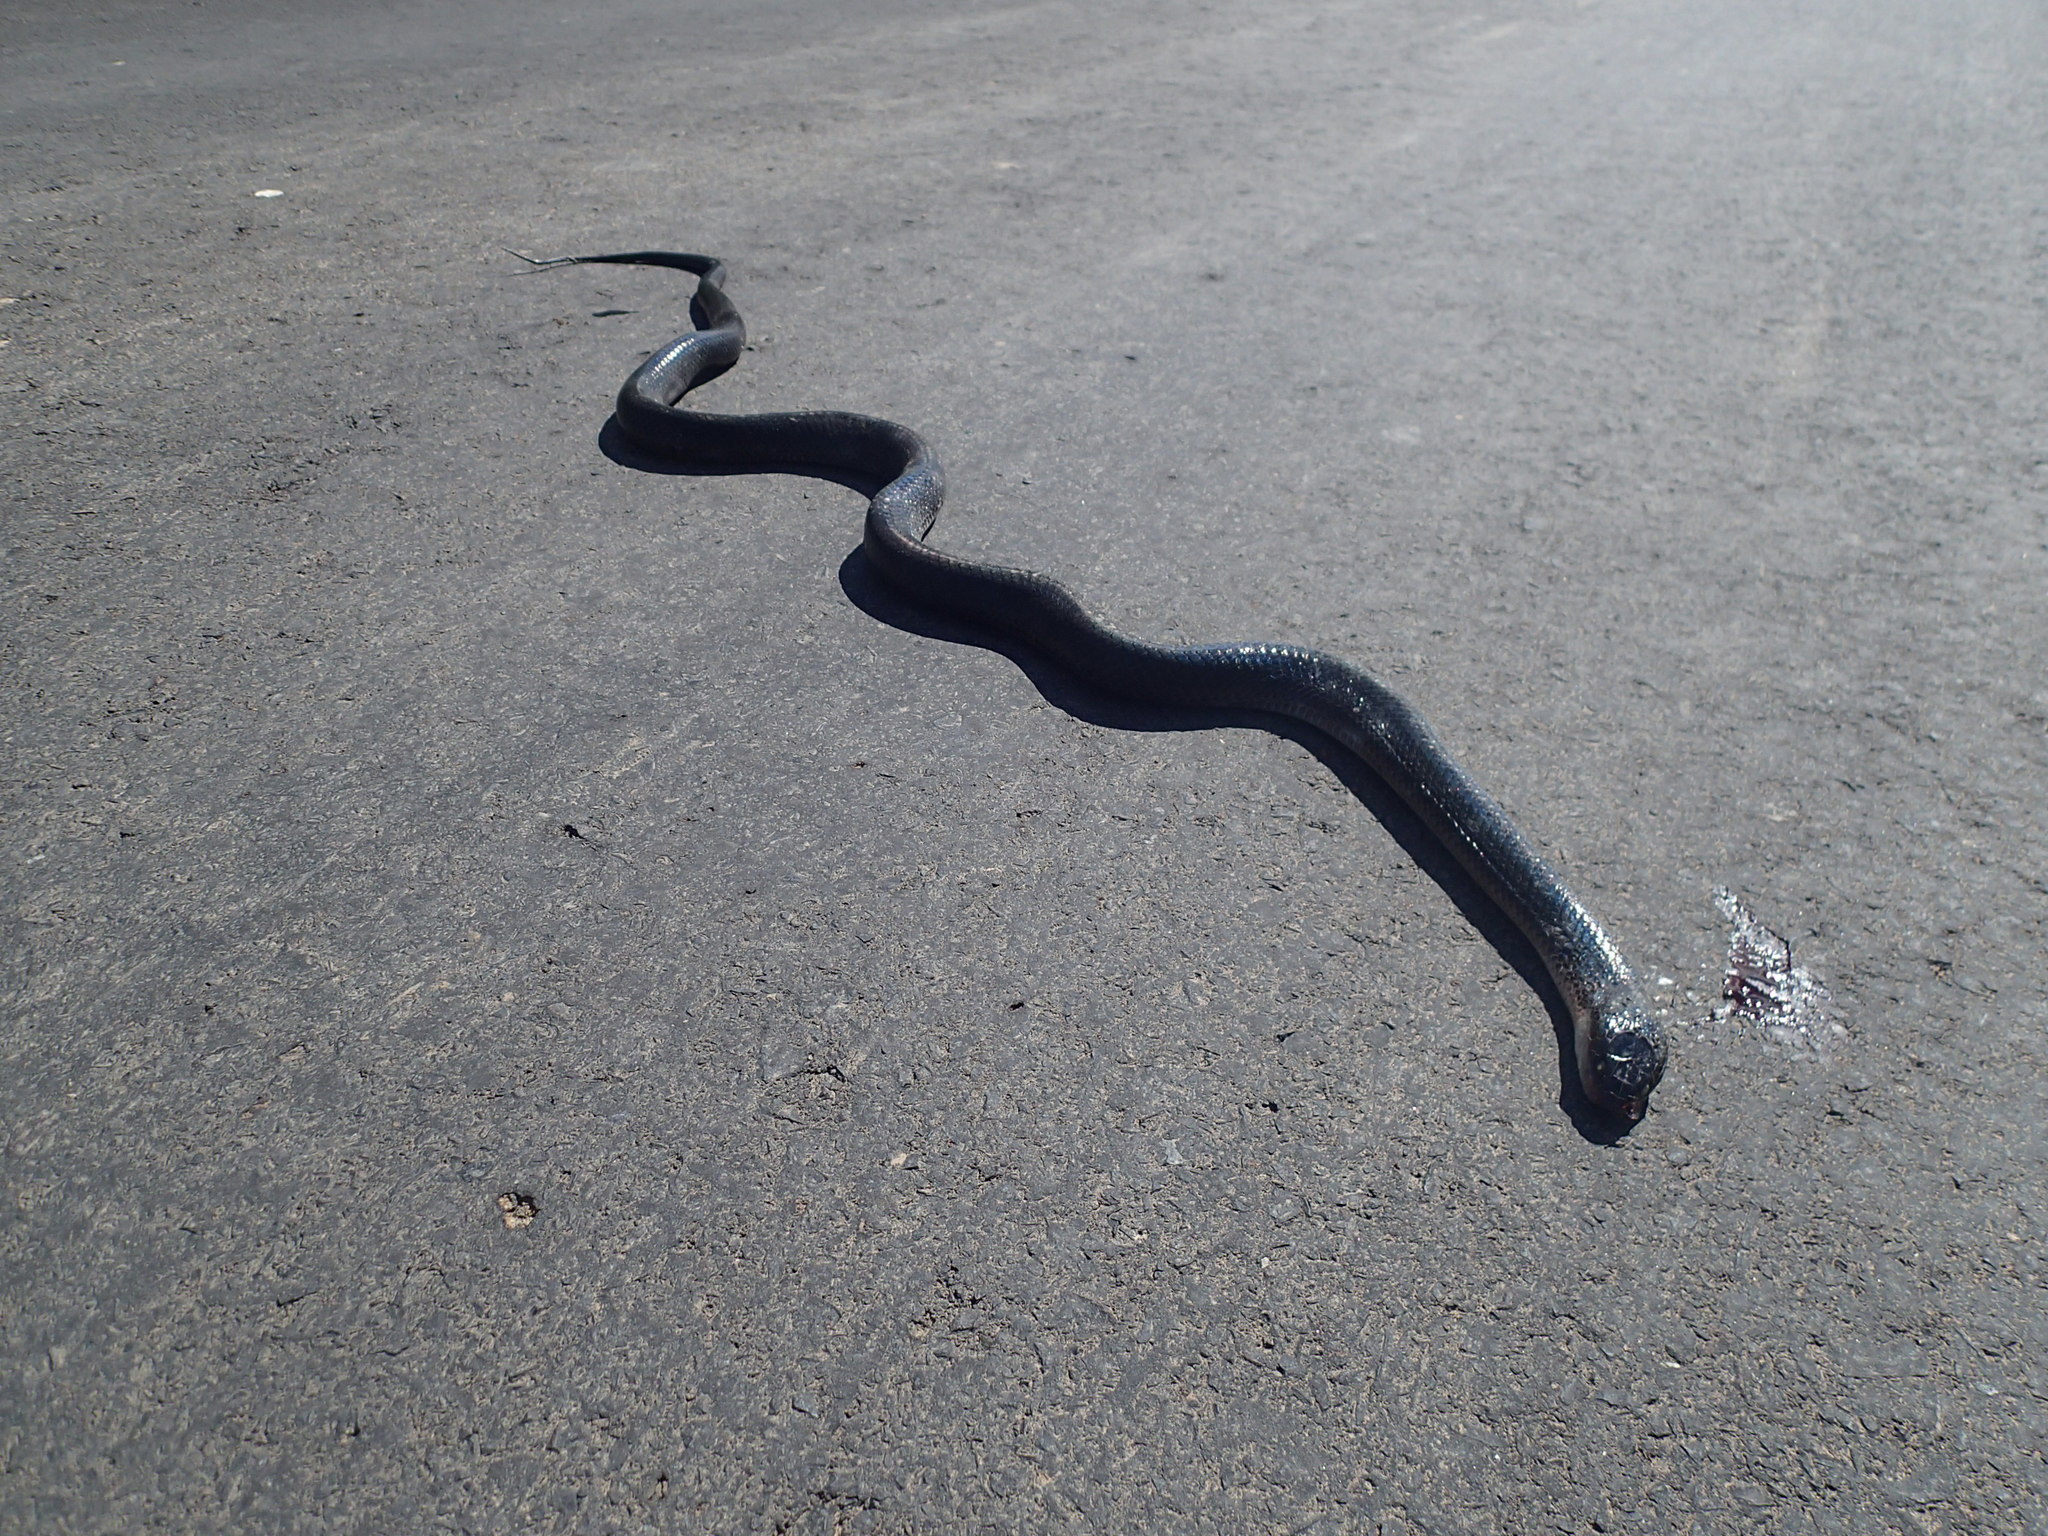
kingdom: Animalia
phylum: Chordata
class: Squamata
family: Colubridae
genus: Boiruna
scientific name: Boiruna maculata
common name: Mussurana
